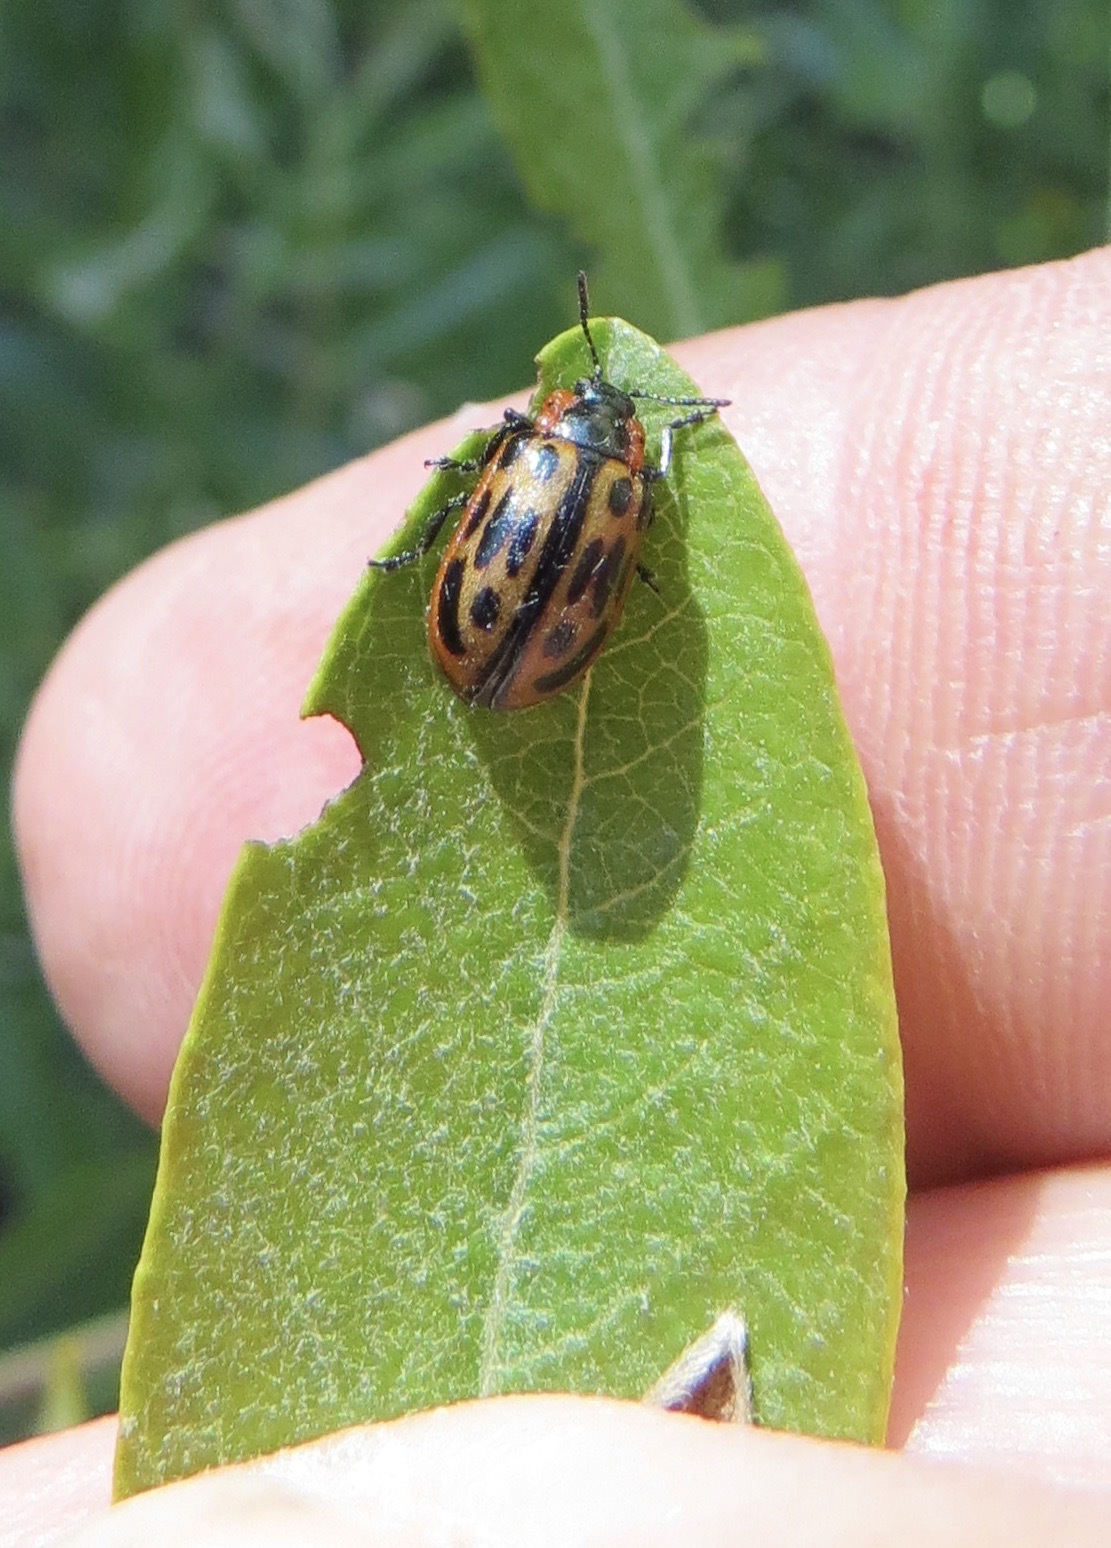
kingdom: Animalia
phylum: Arthropoda
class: Insecta
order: Coleoptera
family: Chrysomelidae
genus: Chrysomela
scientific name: Chrysomela confluens
